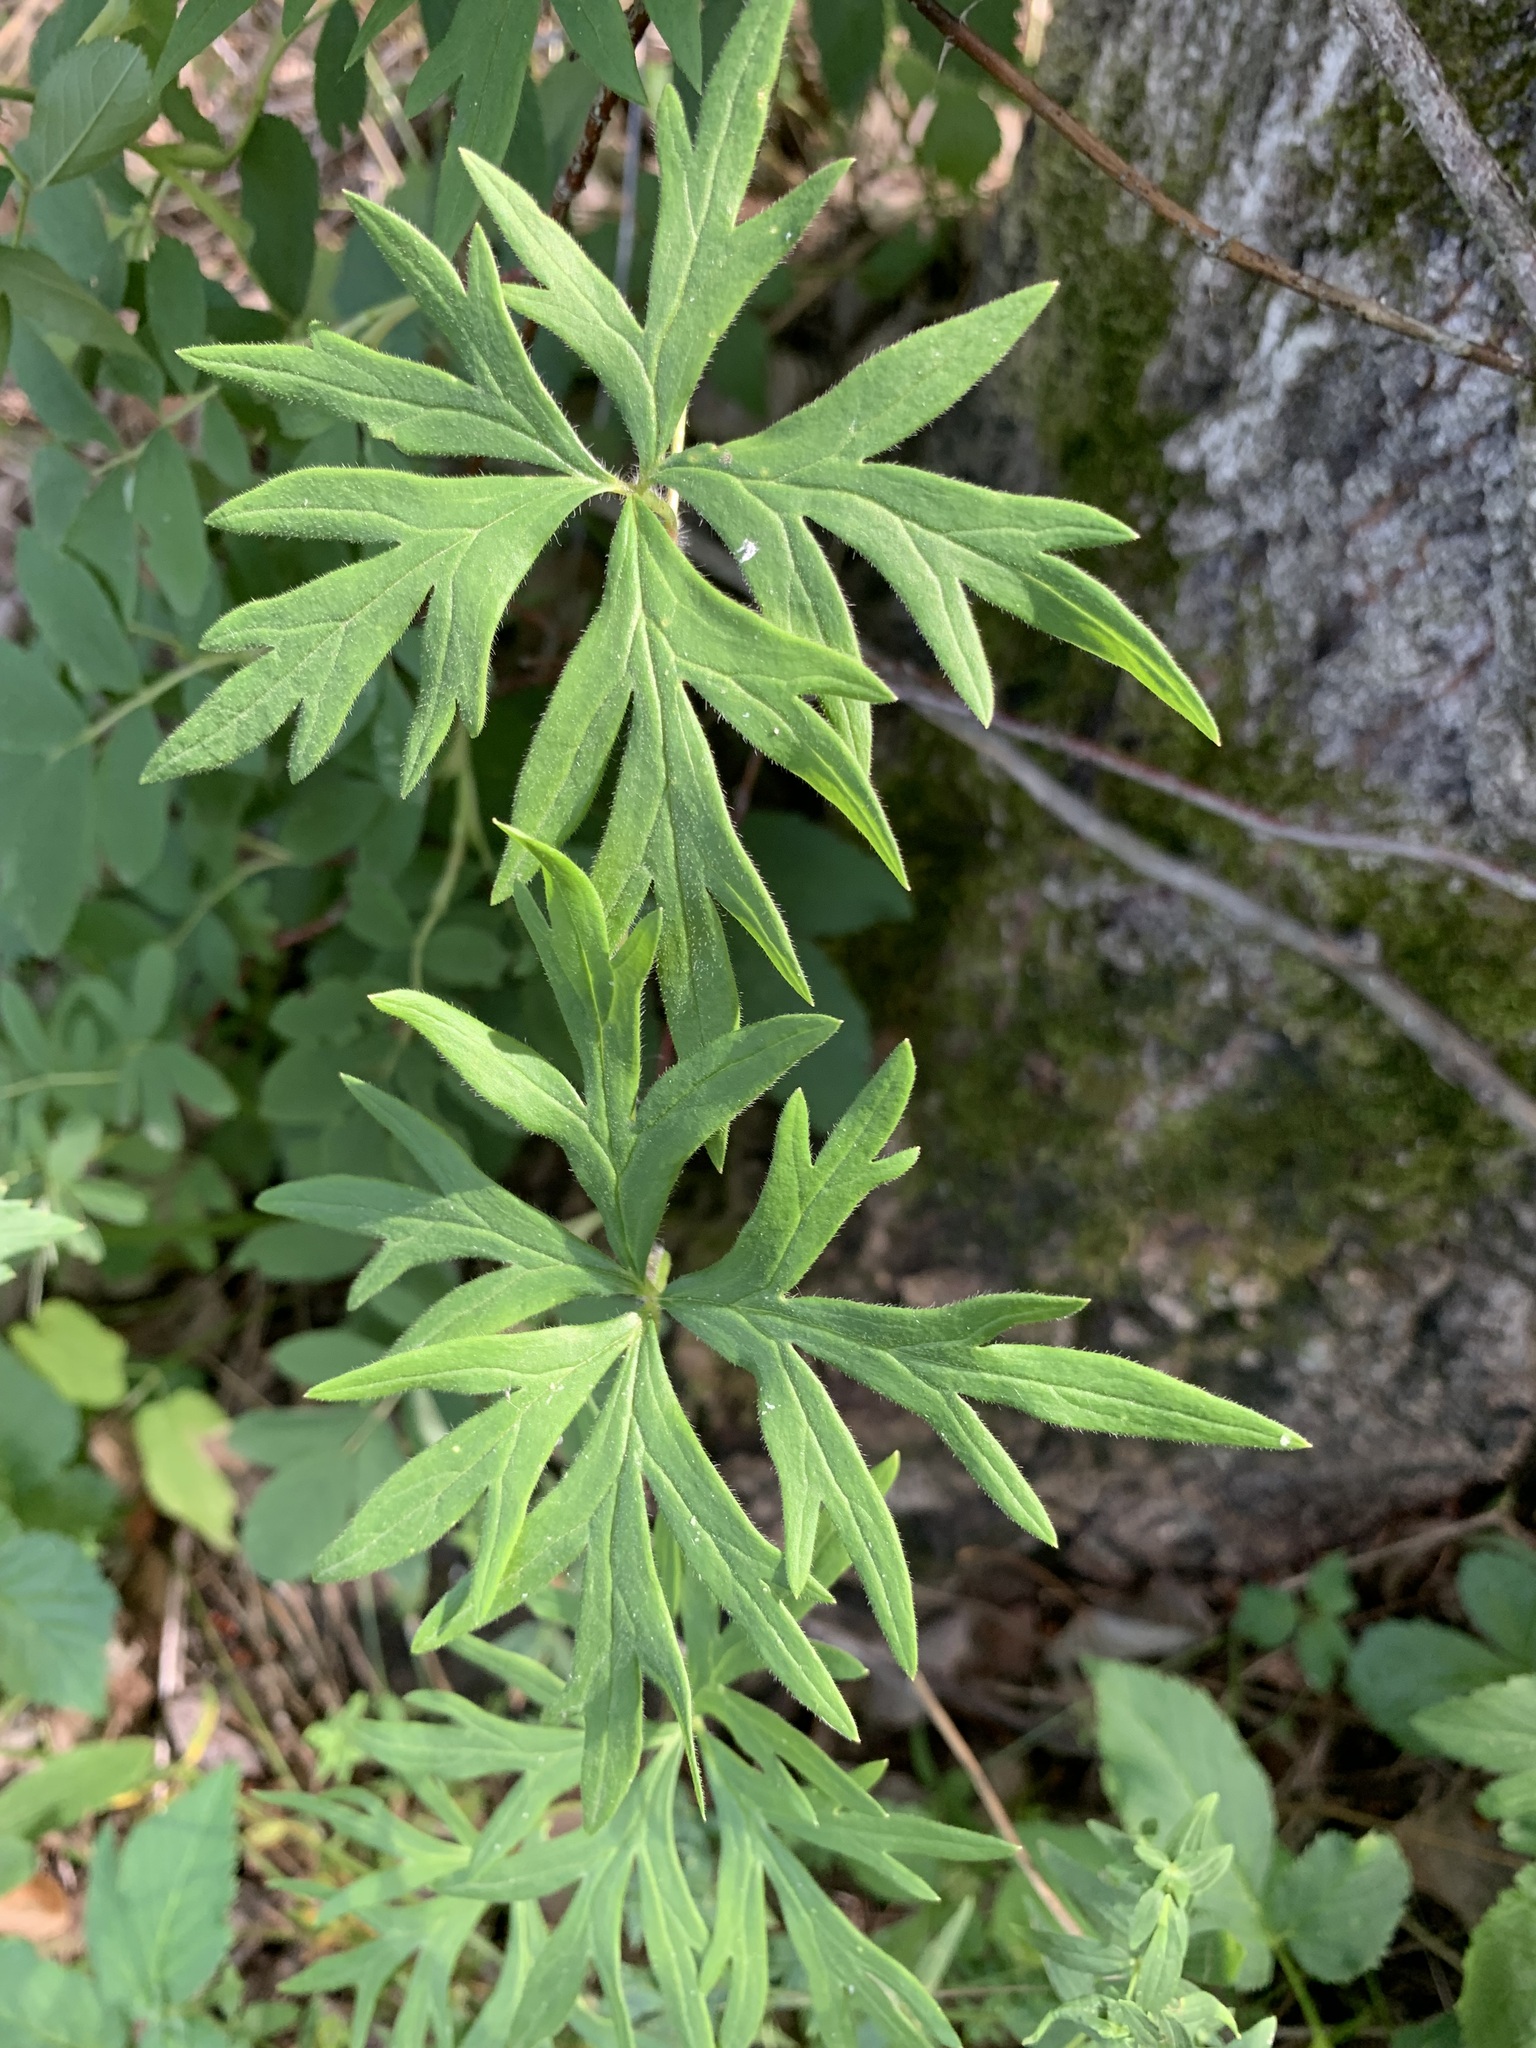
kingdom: Plantae
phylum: Tracheophyta
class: Magnoliopsida
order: Ranunculales
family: Ranunculaceae
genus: Aconitum
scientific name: Aconitum volubile
